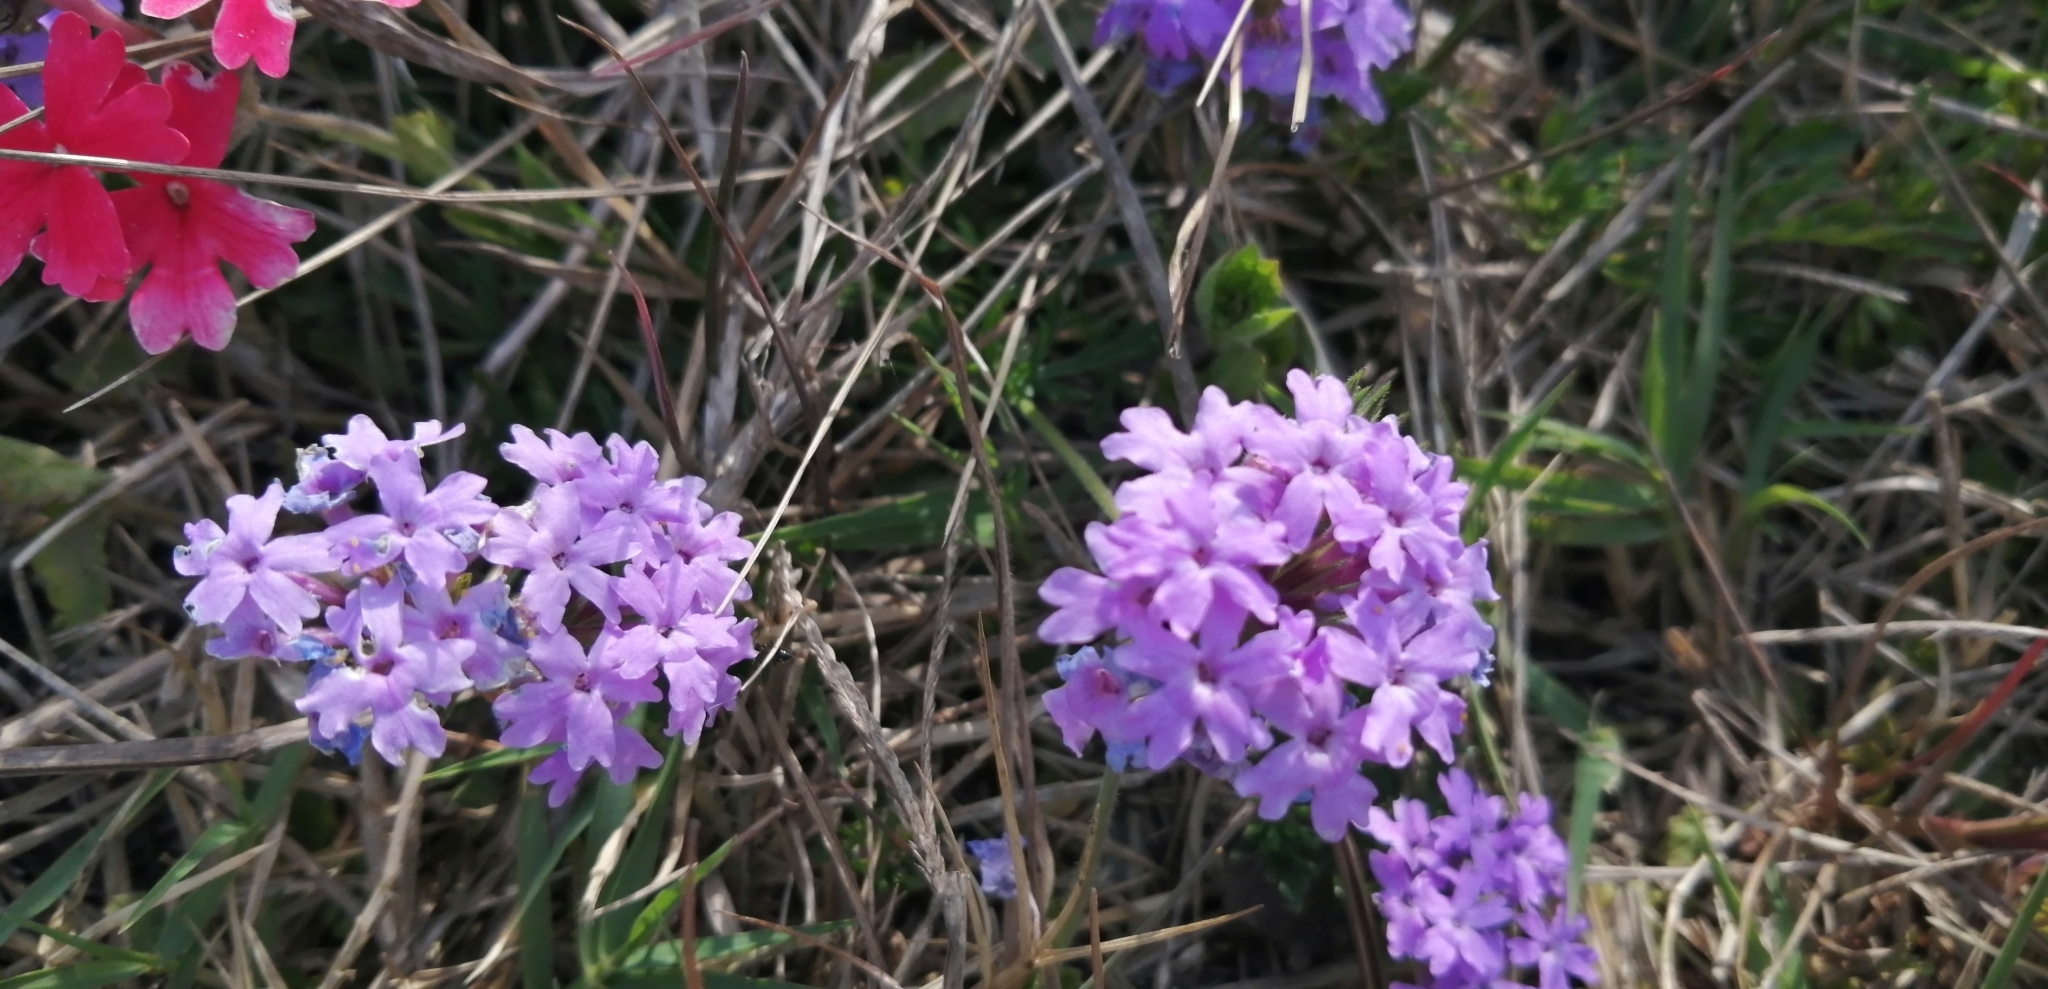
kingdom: Plantae
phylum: Tracheophyta
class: Magnoliopsida
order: Lamiales
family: Verbenaceae
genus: Verbena
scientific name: Verbena selloi
